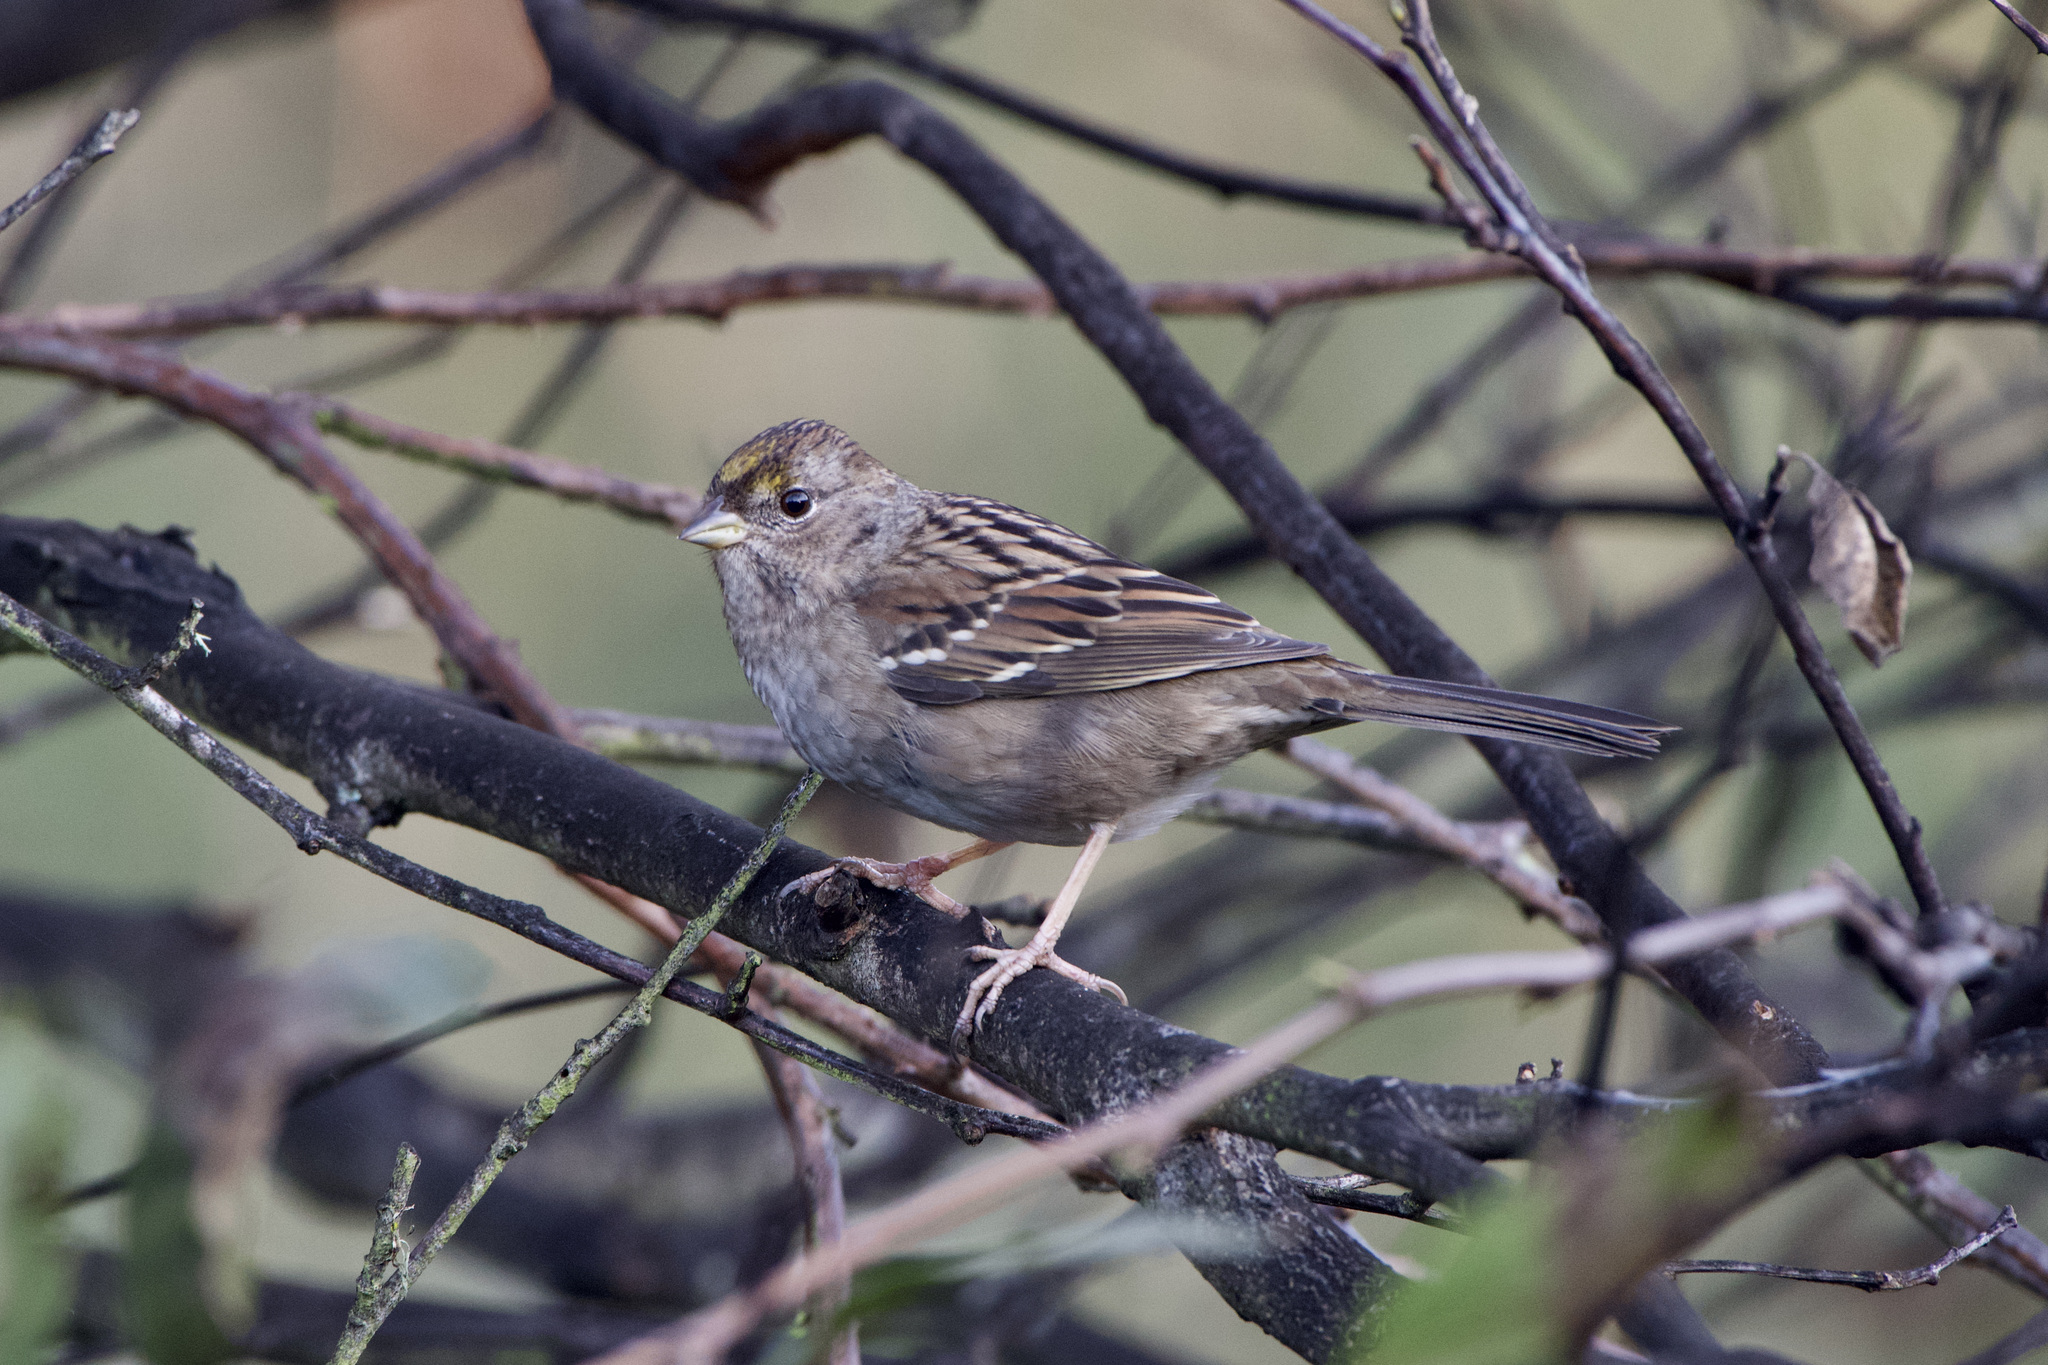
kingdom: Animalia
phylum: Chordata
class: Aves
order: Passeriformes
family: Passerellidae
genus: Zonotrichia
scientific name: Zonotrichia atricapilla
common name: Golden-crowned sparrow
